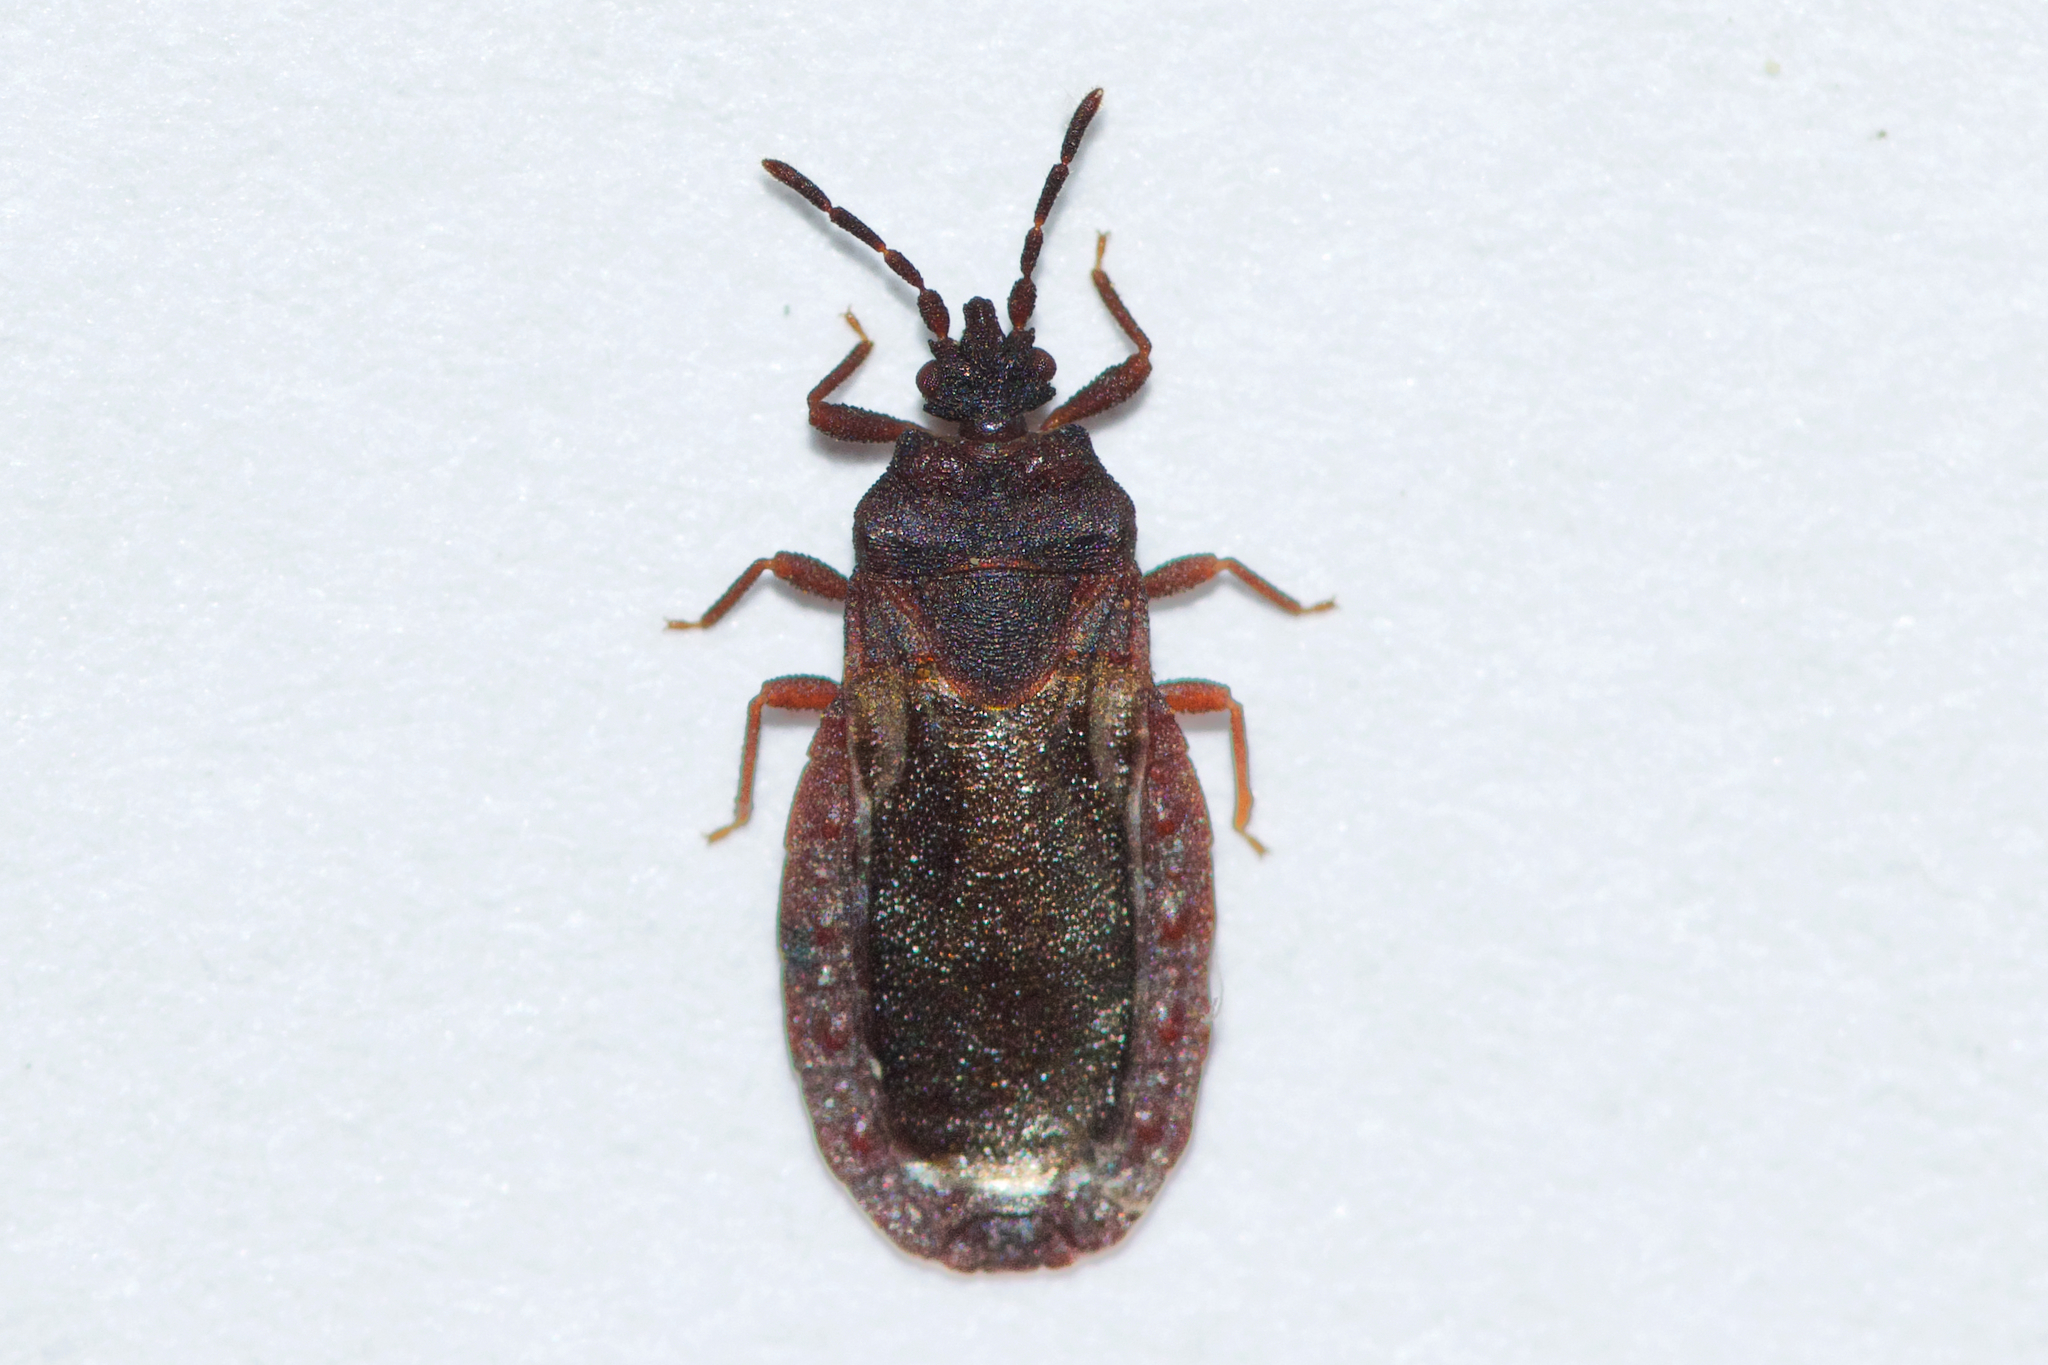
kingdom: Animalia
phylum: Arthropoda
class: Insecta
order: Hemiptera
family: Aradidae
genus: Aneurus
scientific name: Aneurus inconstans
